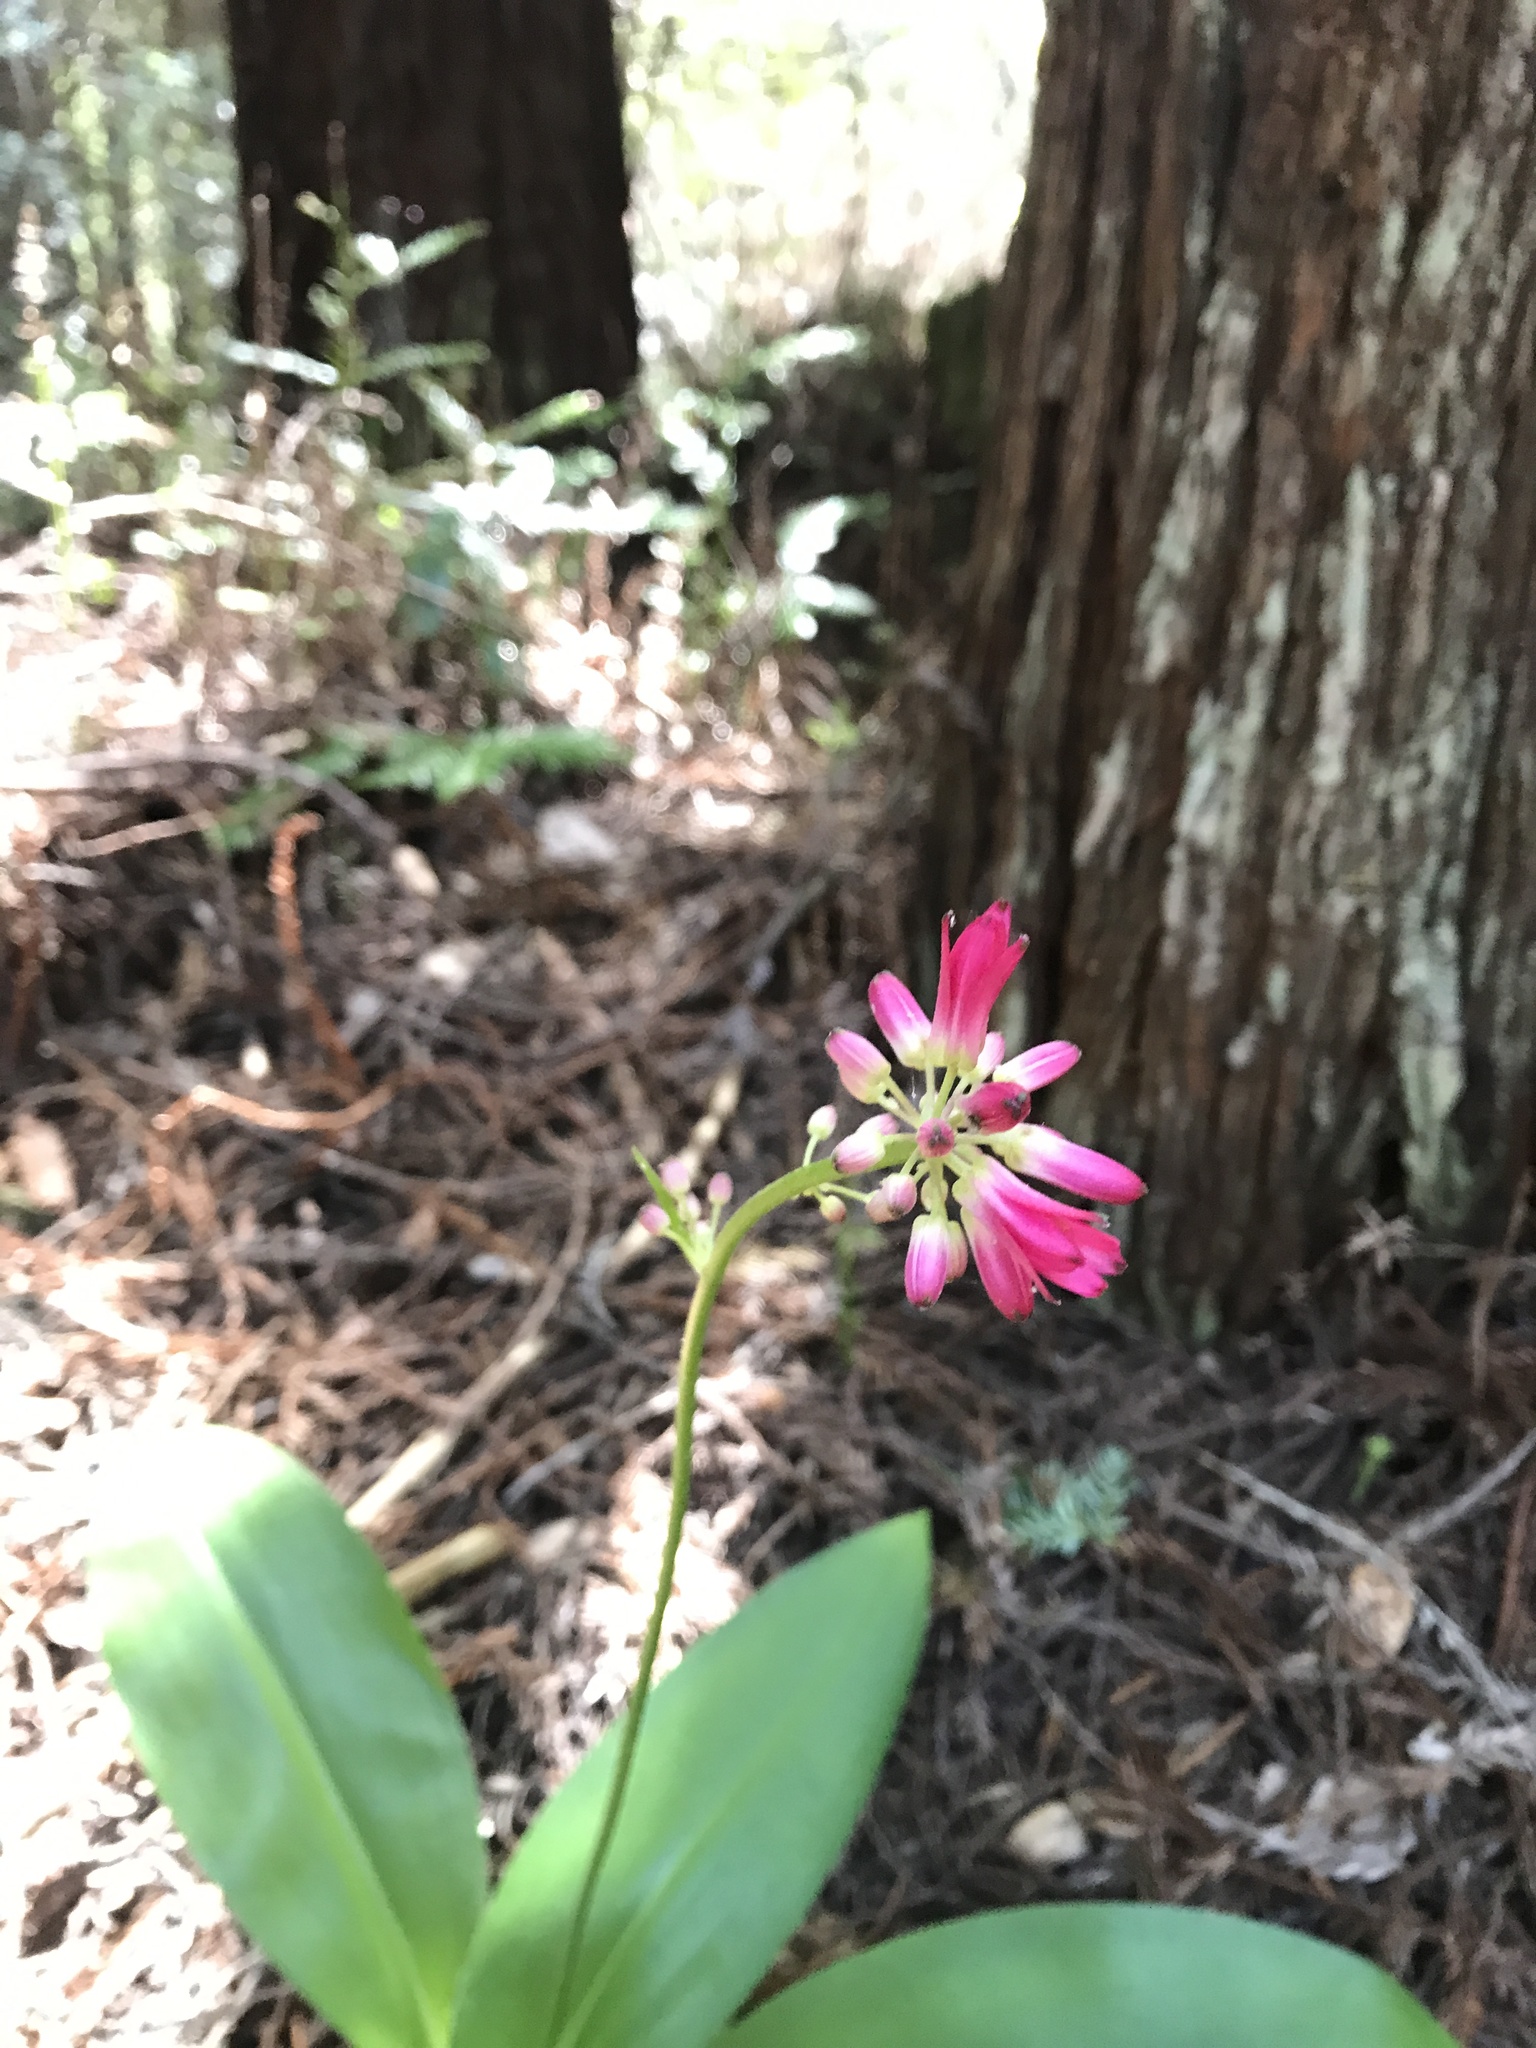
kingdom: Plantae
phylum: Tracheophyta
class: Liliopsida
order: Liliales
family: Liliaceae
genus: Clintonia
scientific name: Clintonia andrewsiana
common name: Red clintonia
